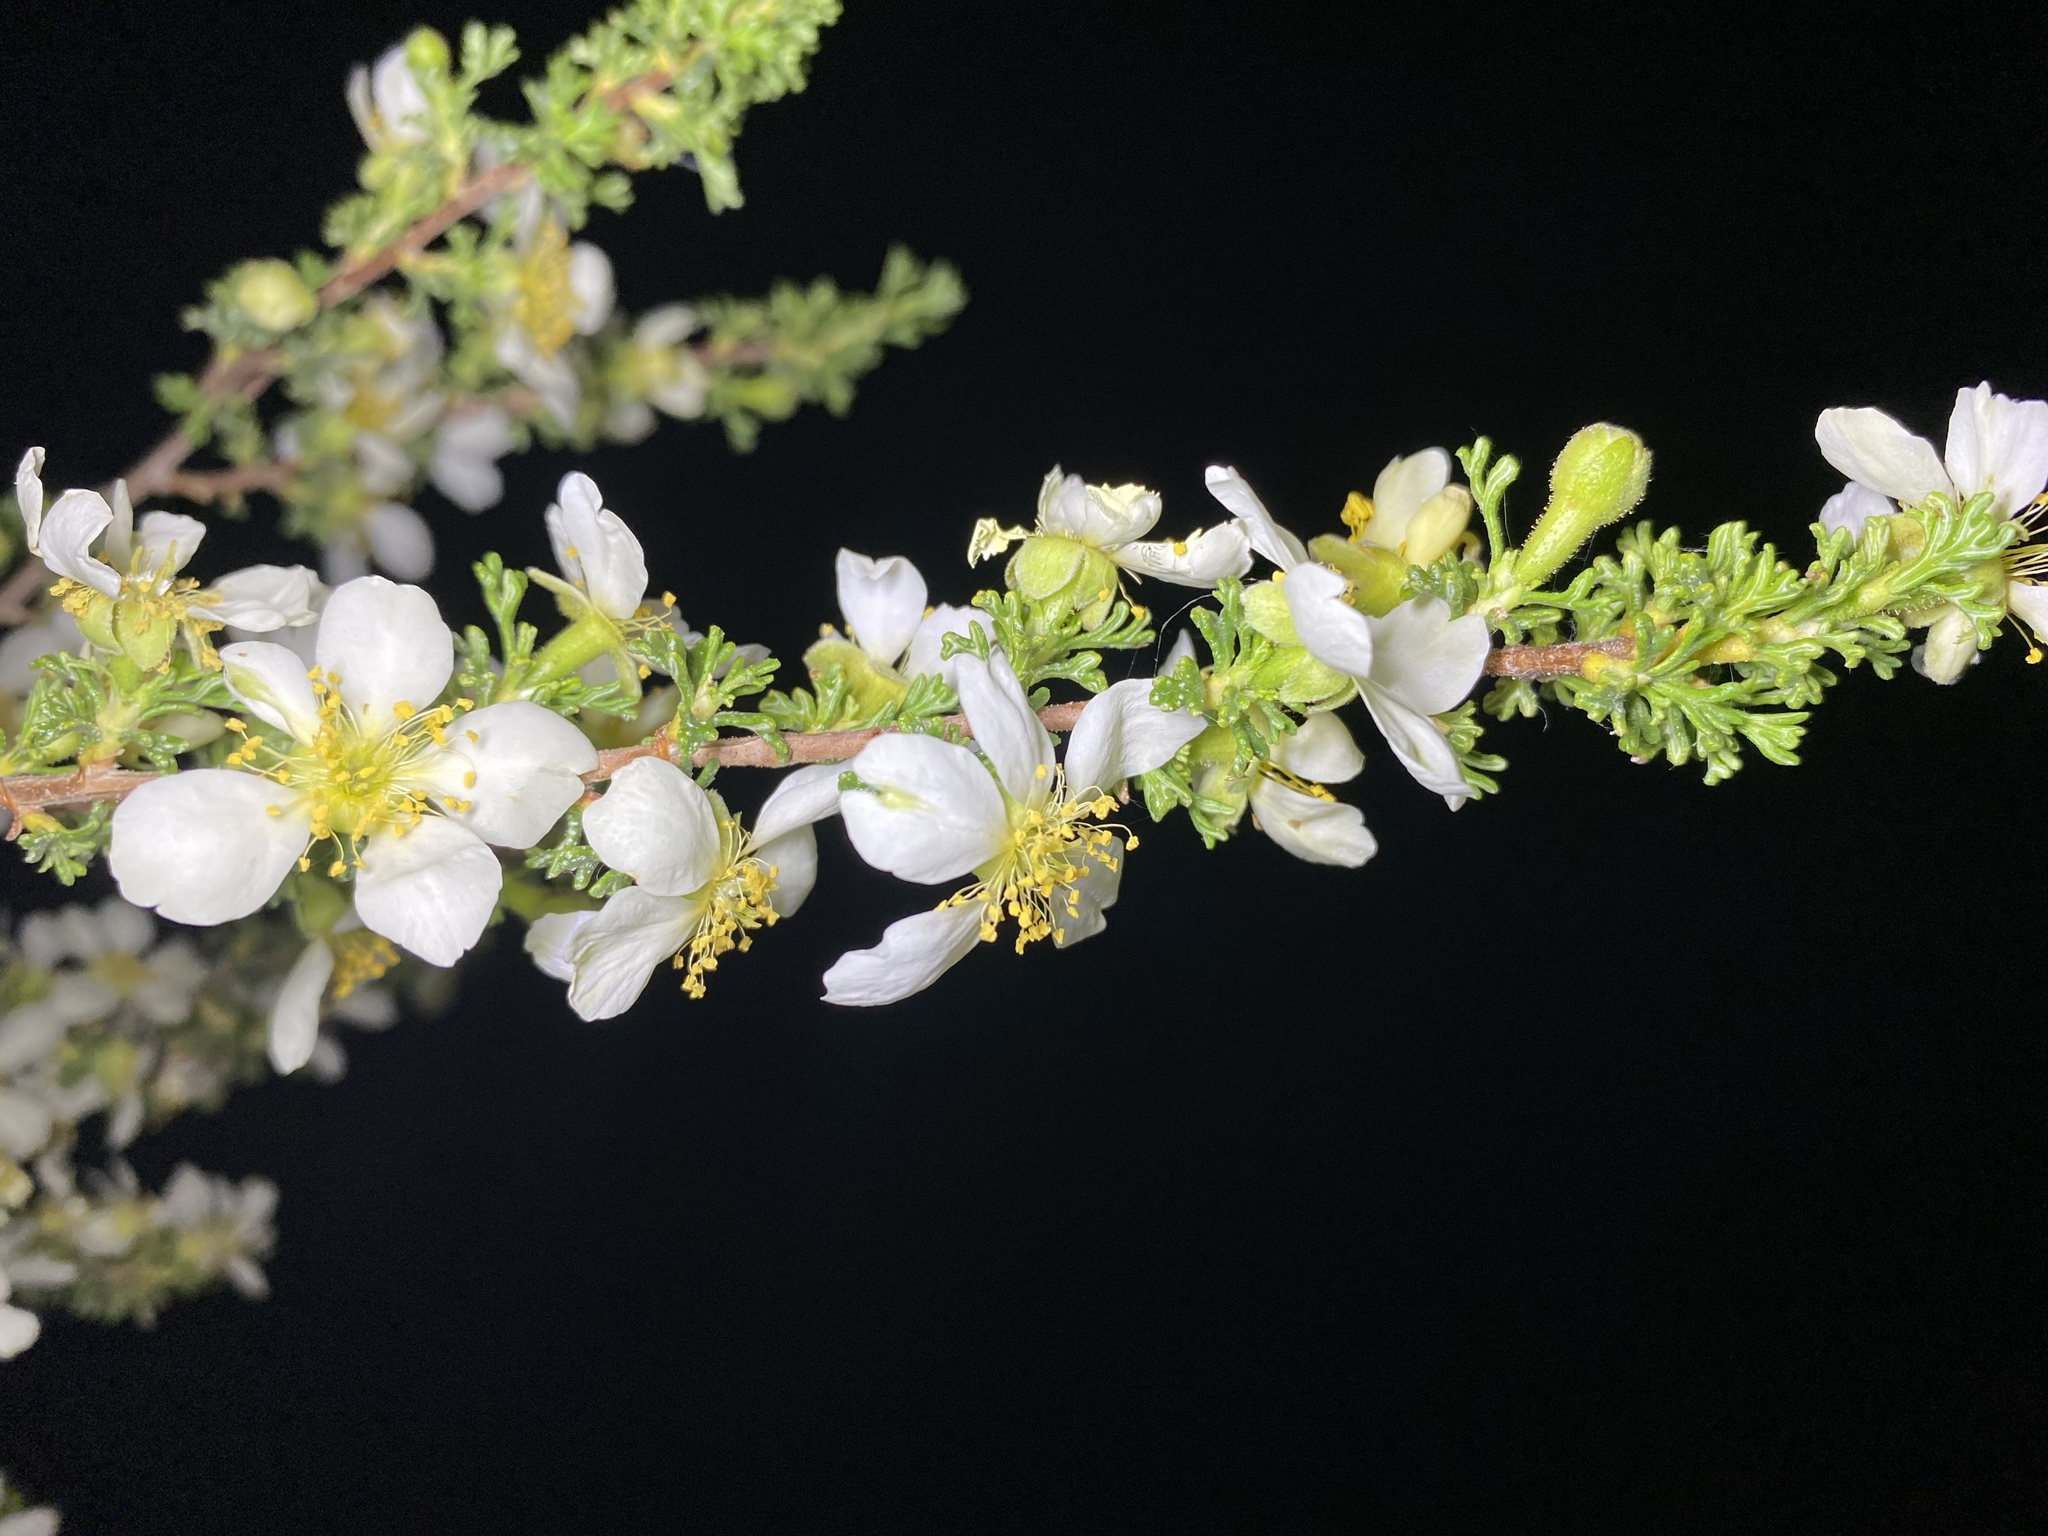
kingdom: Plantae
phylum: Tracheophyta
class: Magnoliopsida
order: Rosales
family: Rosaceae
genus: Purshia
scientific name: Purshia stansburiana
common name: Stansbury's cliffrose
